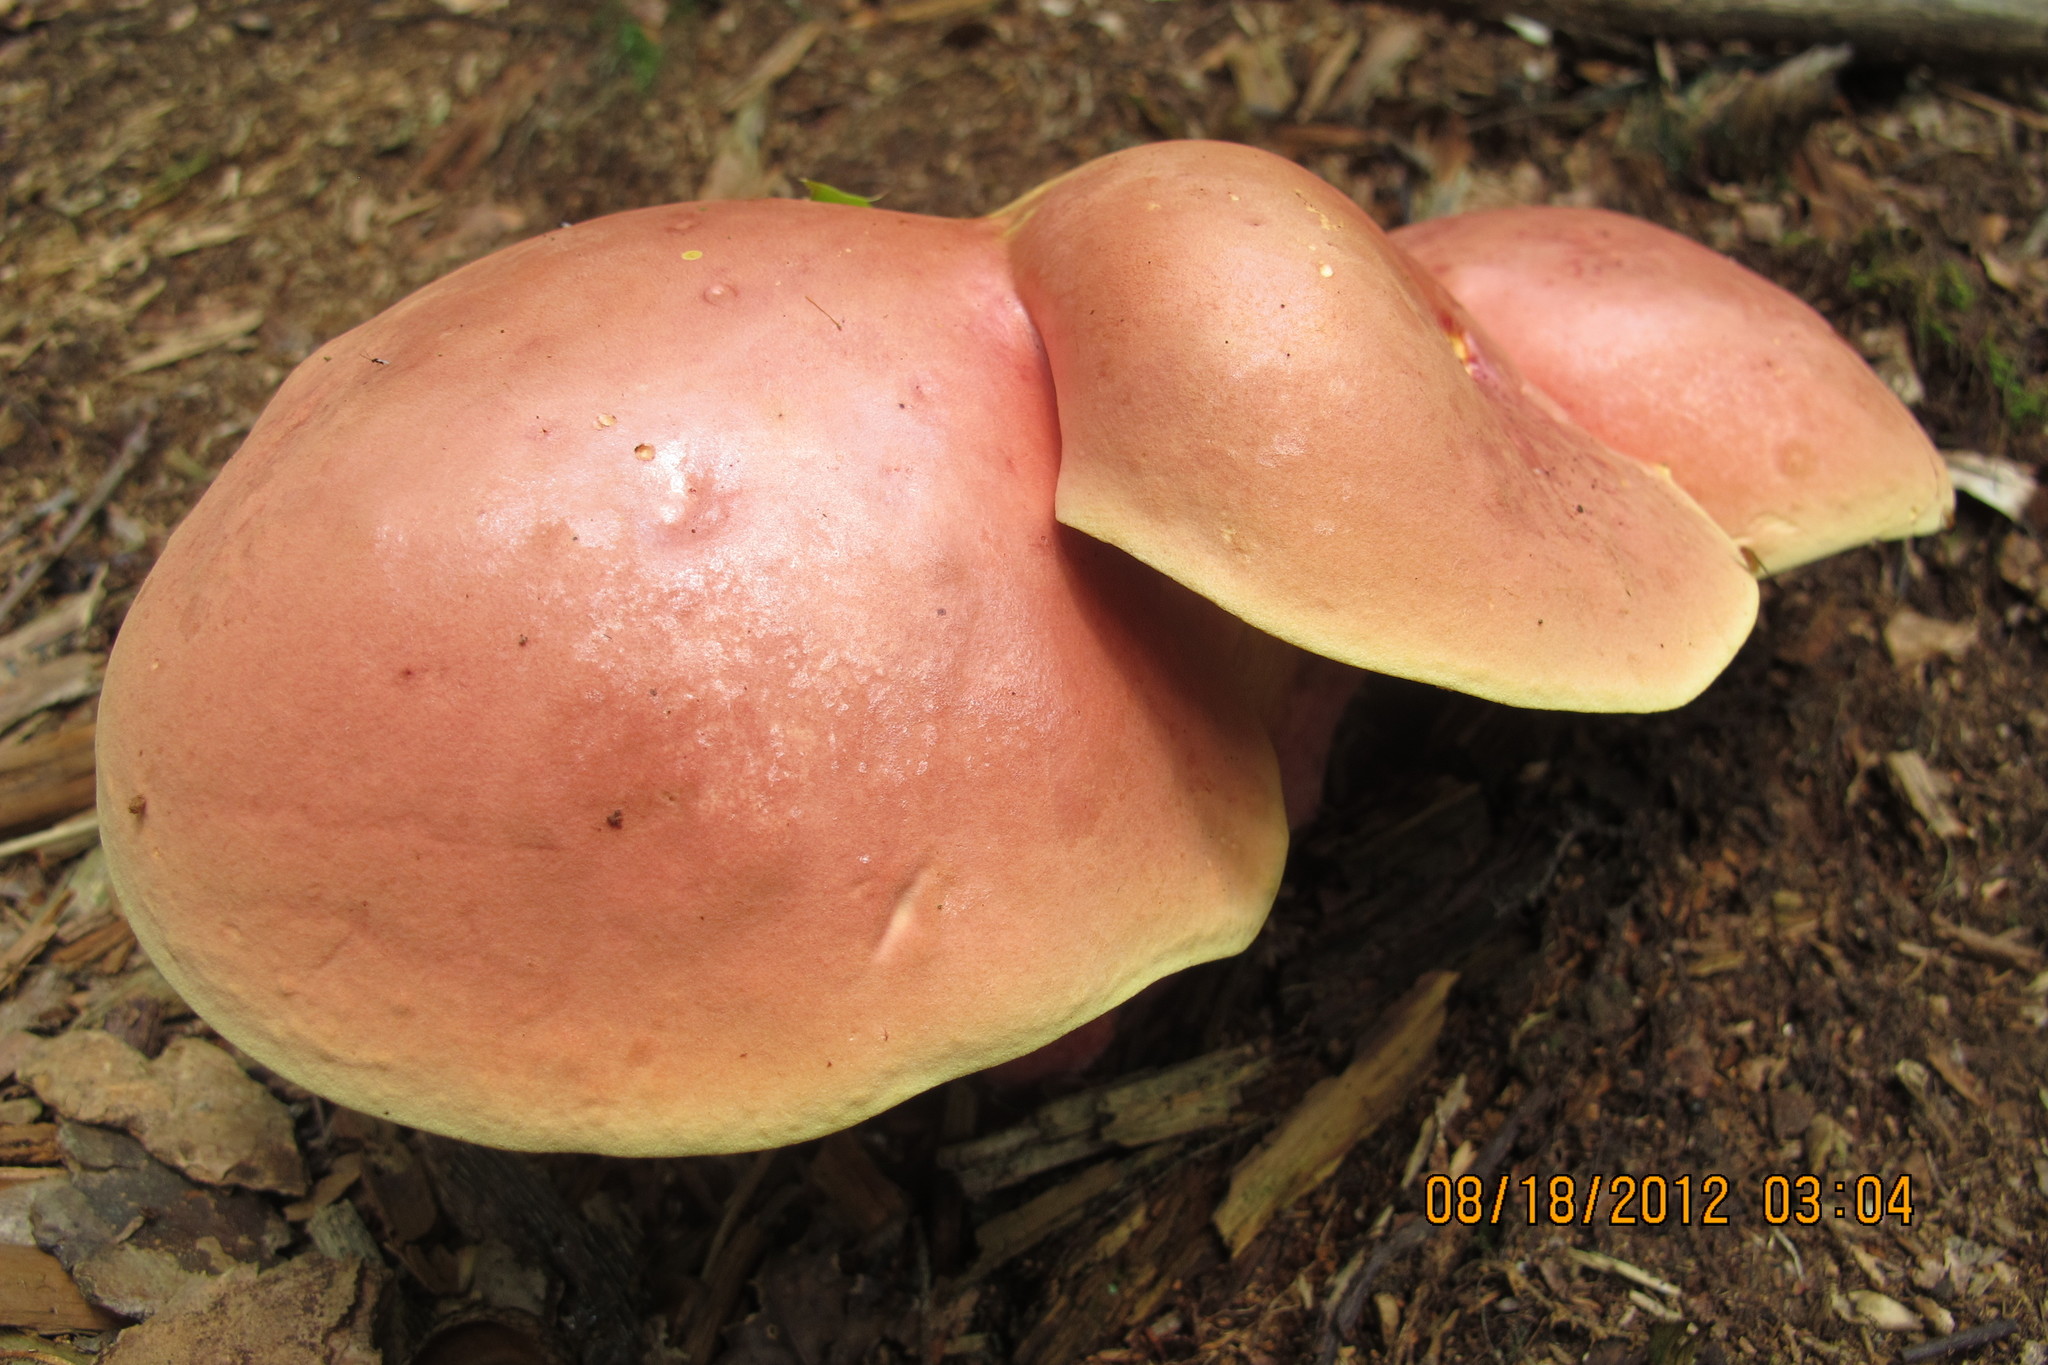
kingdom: Fungi
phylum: Basidiomycota
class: Agaricomycetes
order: Boletales
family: Boletaceae
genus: Baorangia
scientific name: Baorangia bicolor
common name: Two-colored bolete
